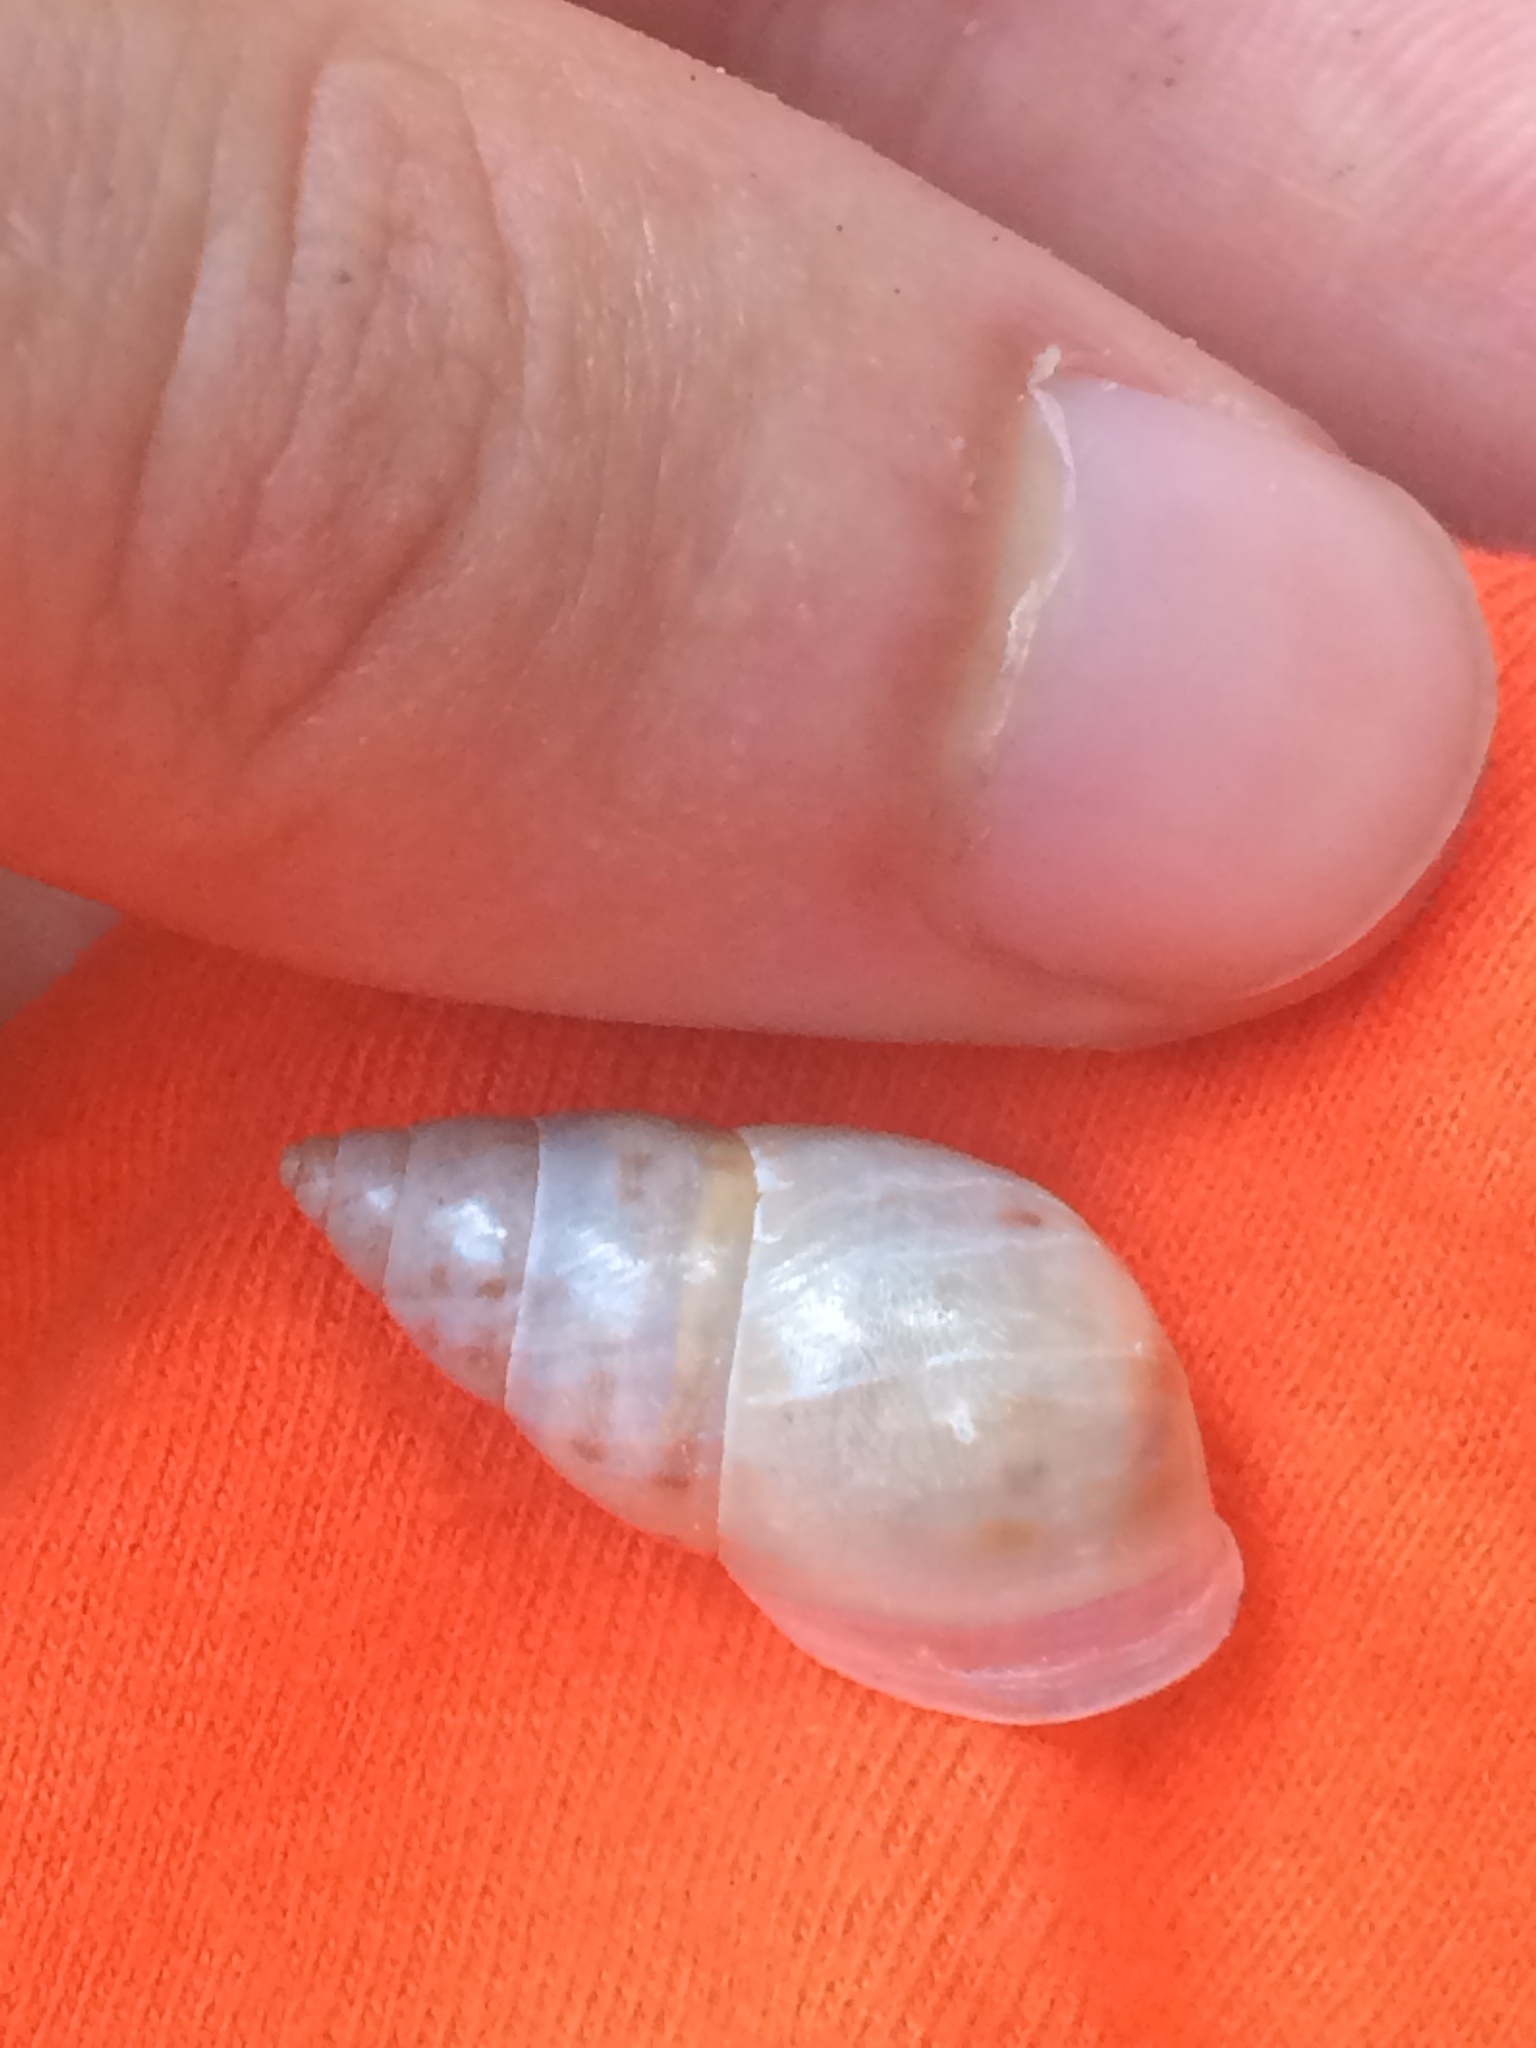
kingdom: Animalia
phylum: Mollusca
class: Gastropoda
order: Stylommatophora
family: Bulimulidae
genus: Drymaeus
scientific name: Drymaeus dormani
